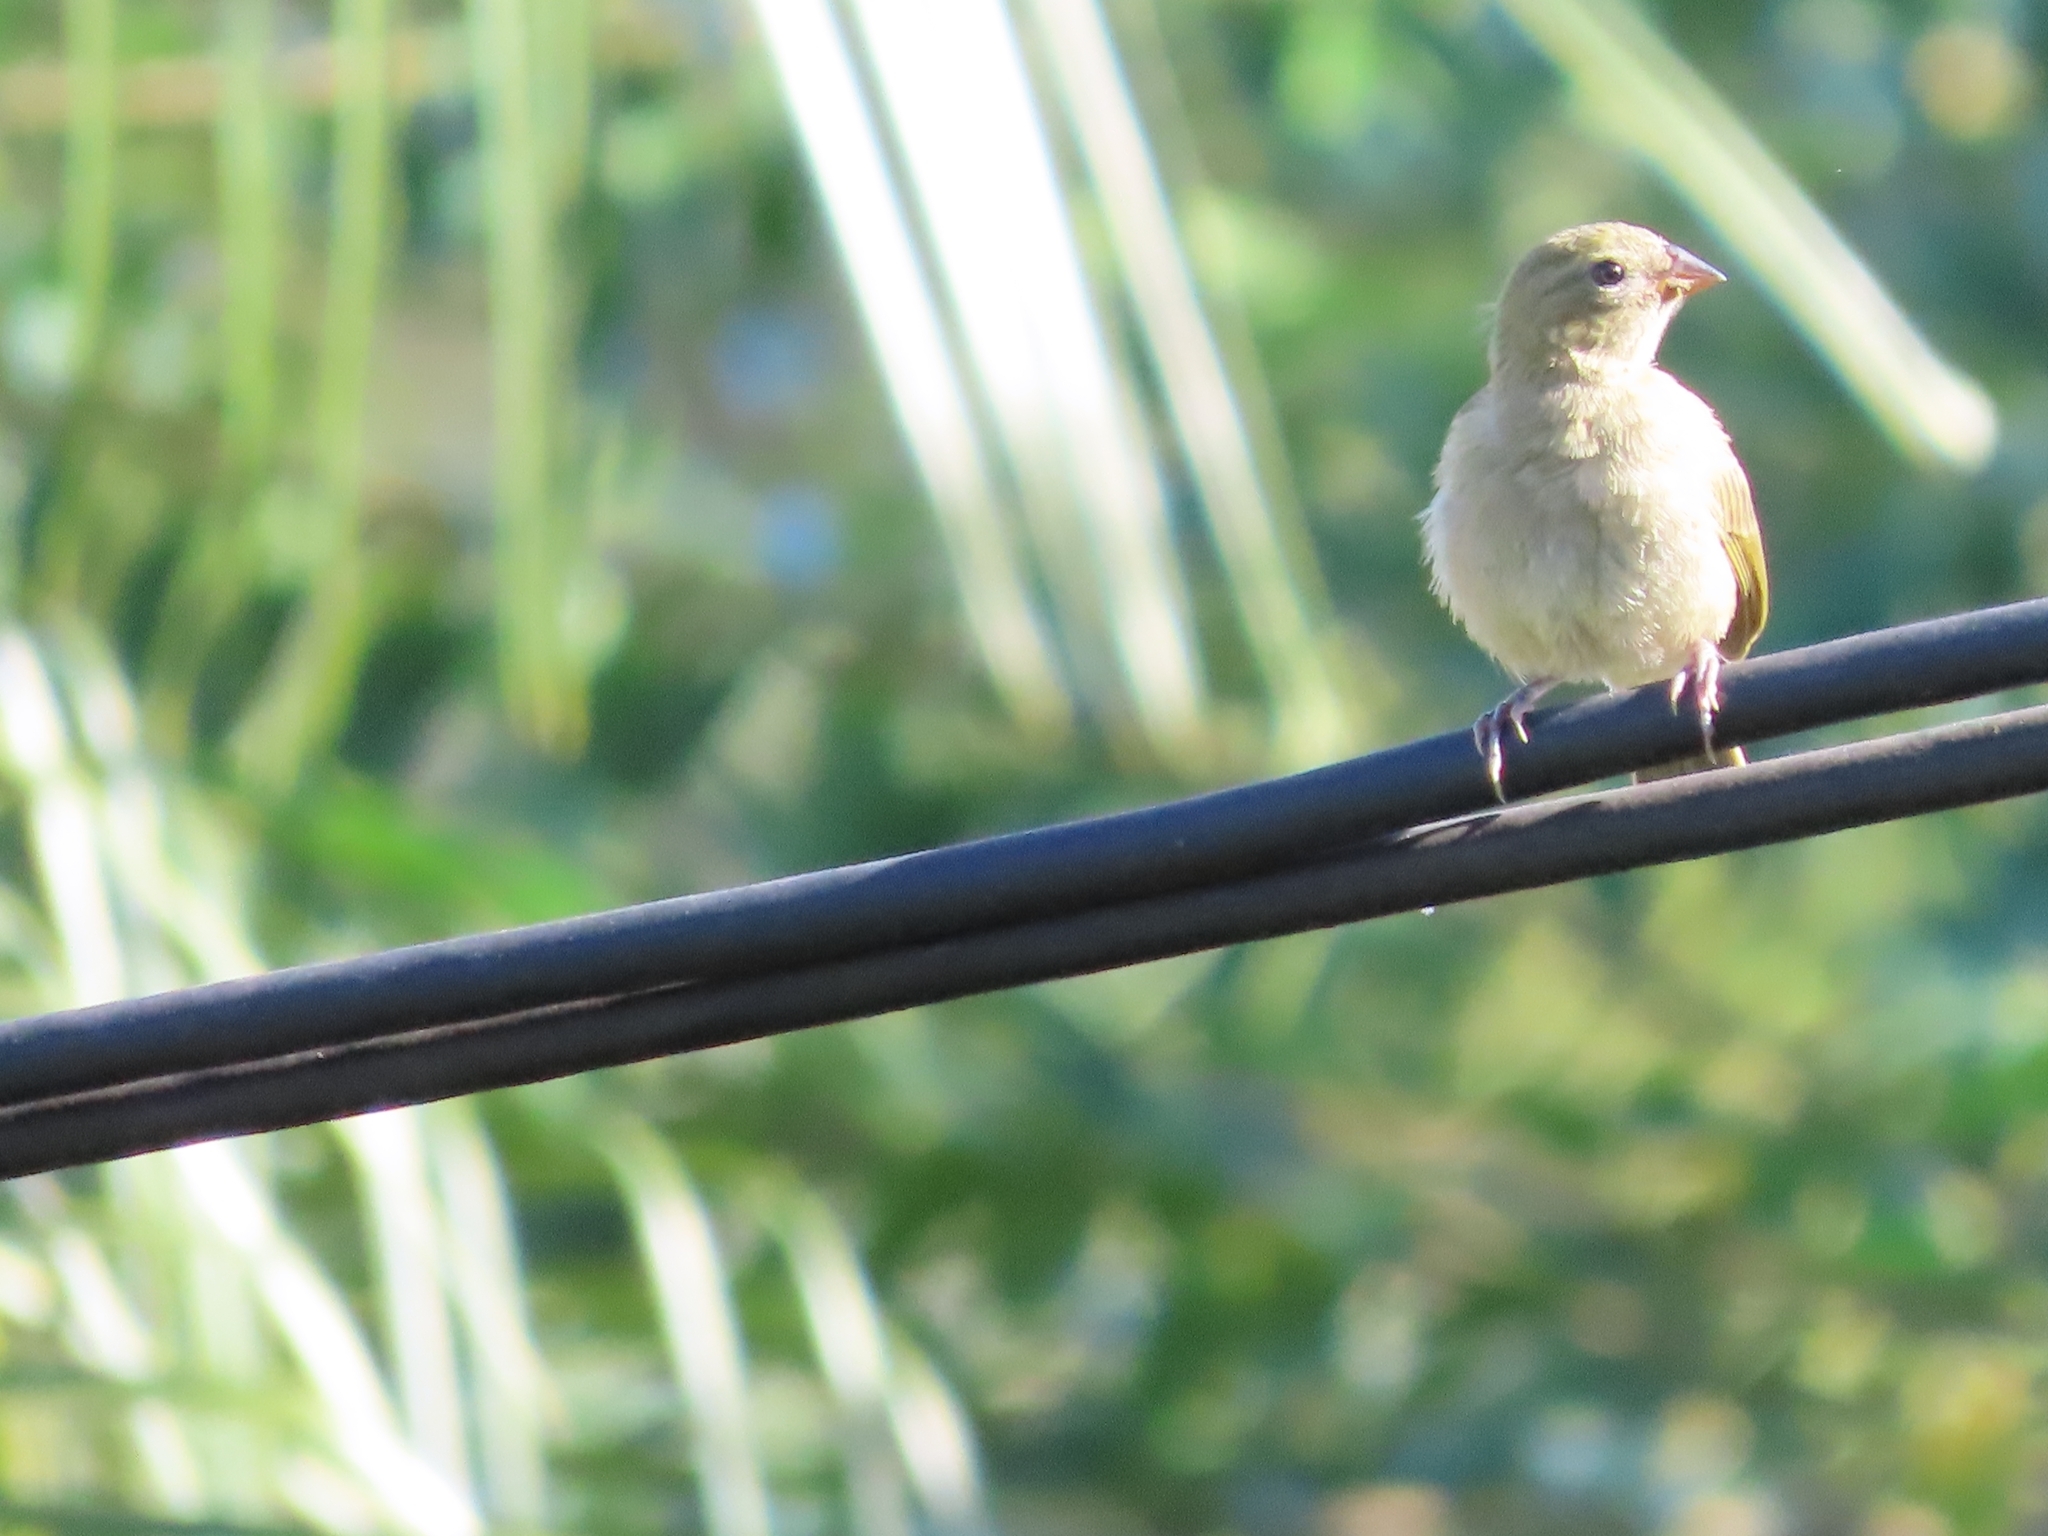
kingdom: Animalia
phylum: Chordata
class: Aves
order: Passeriformes
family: Thraupidae
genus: Tiaris
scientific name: Tiaris olivaceus
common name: Yellow-faced grassquit
